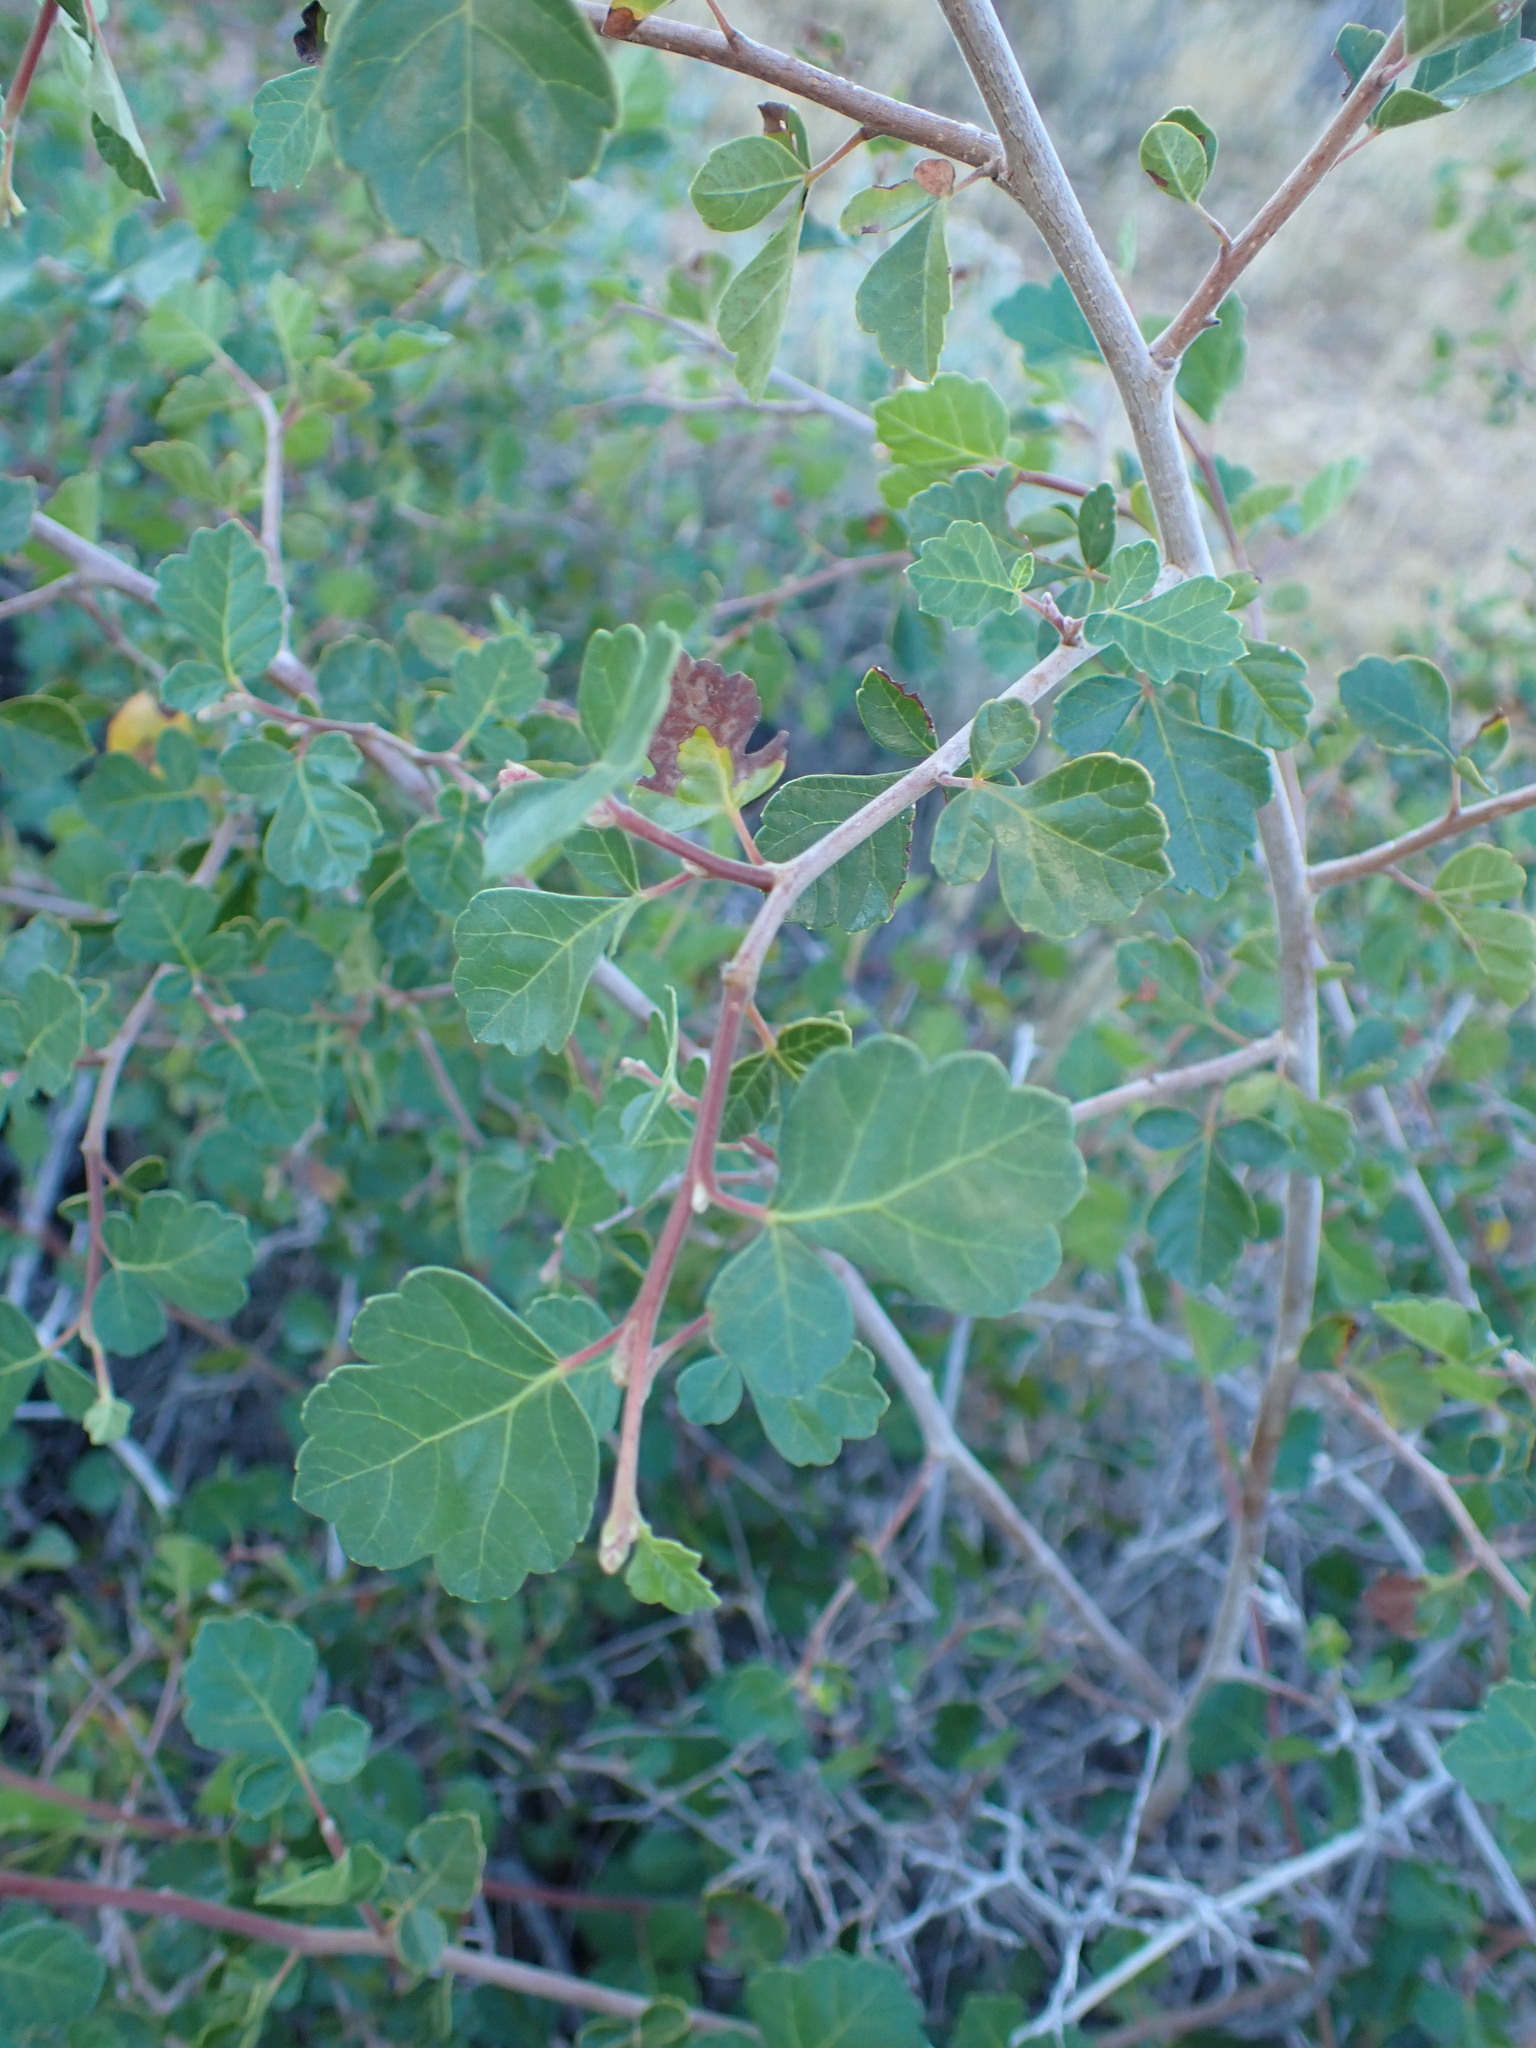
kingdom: Plantae
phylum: Tracheophyta
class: Magnoliopsida
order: Sapindales
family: Anacardiaceae
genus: Rhus
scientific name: Rhus aromatica
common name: Aromatic sumac
